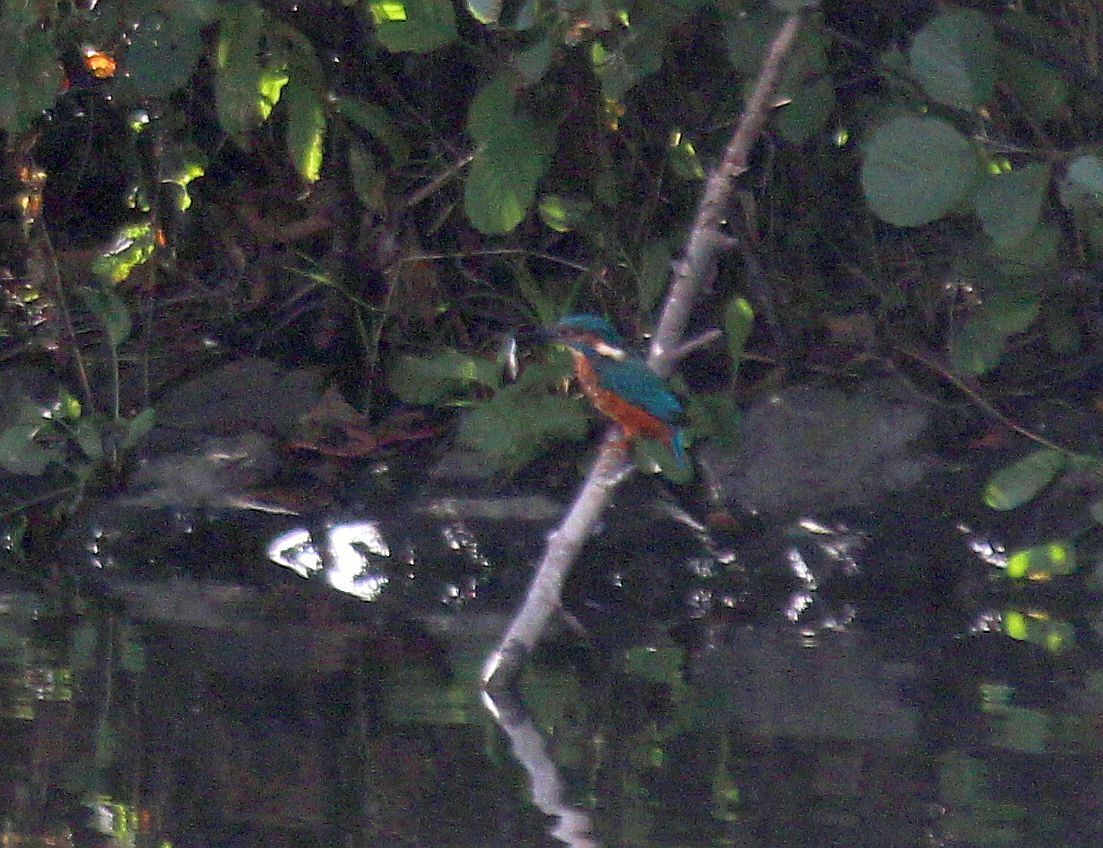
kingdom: Animalia
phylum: Chordata
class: Aves
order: Coraciiformes
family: Alcedinidae
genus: Alcedo
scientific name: Alcedo atthis
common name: Common kingfisher
